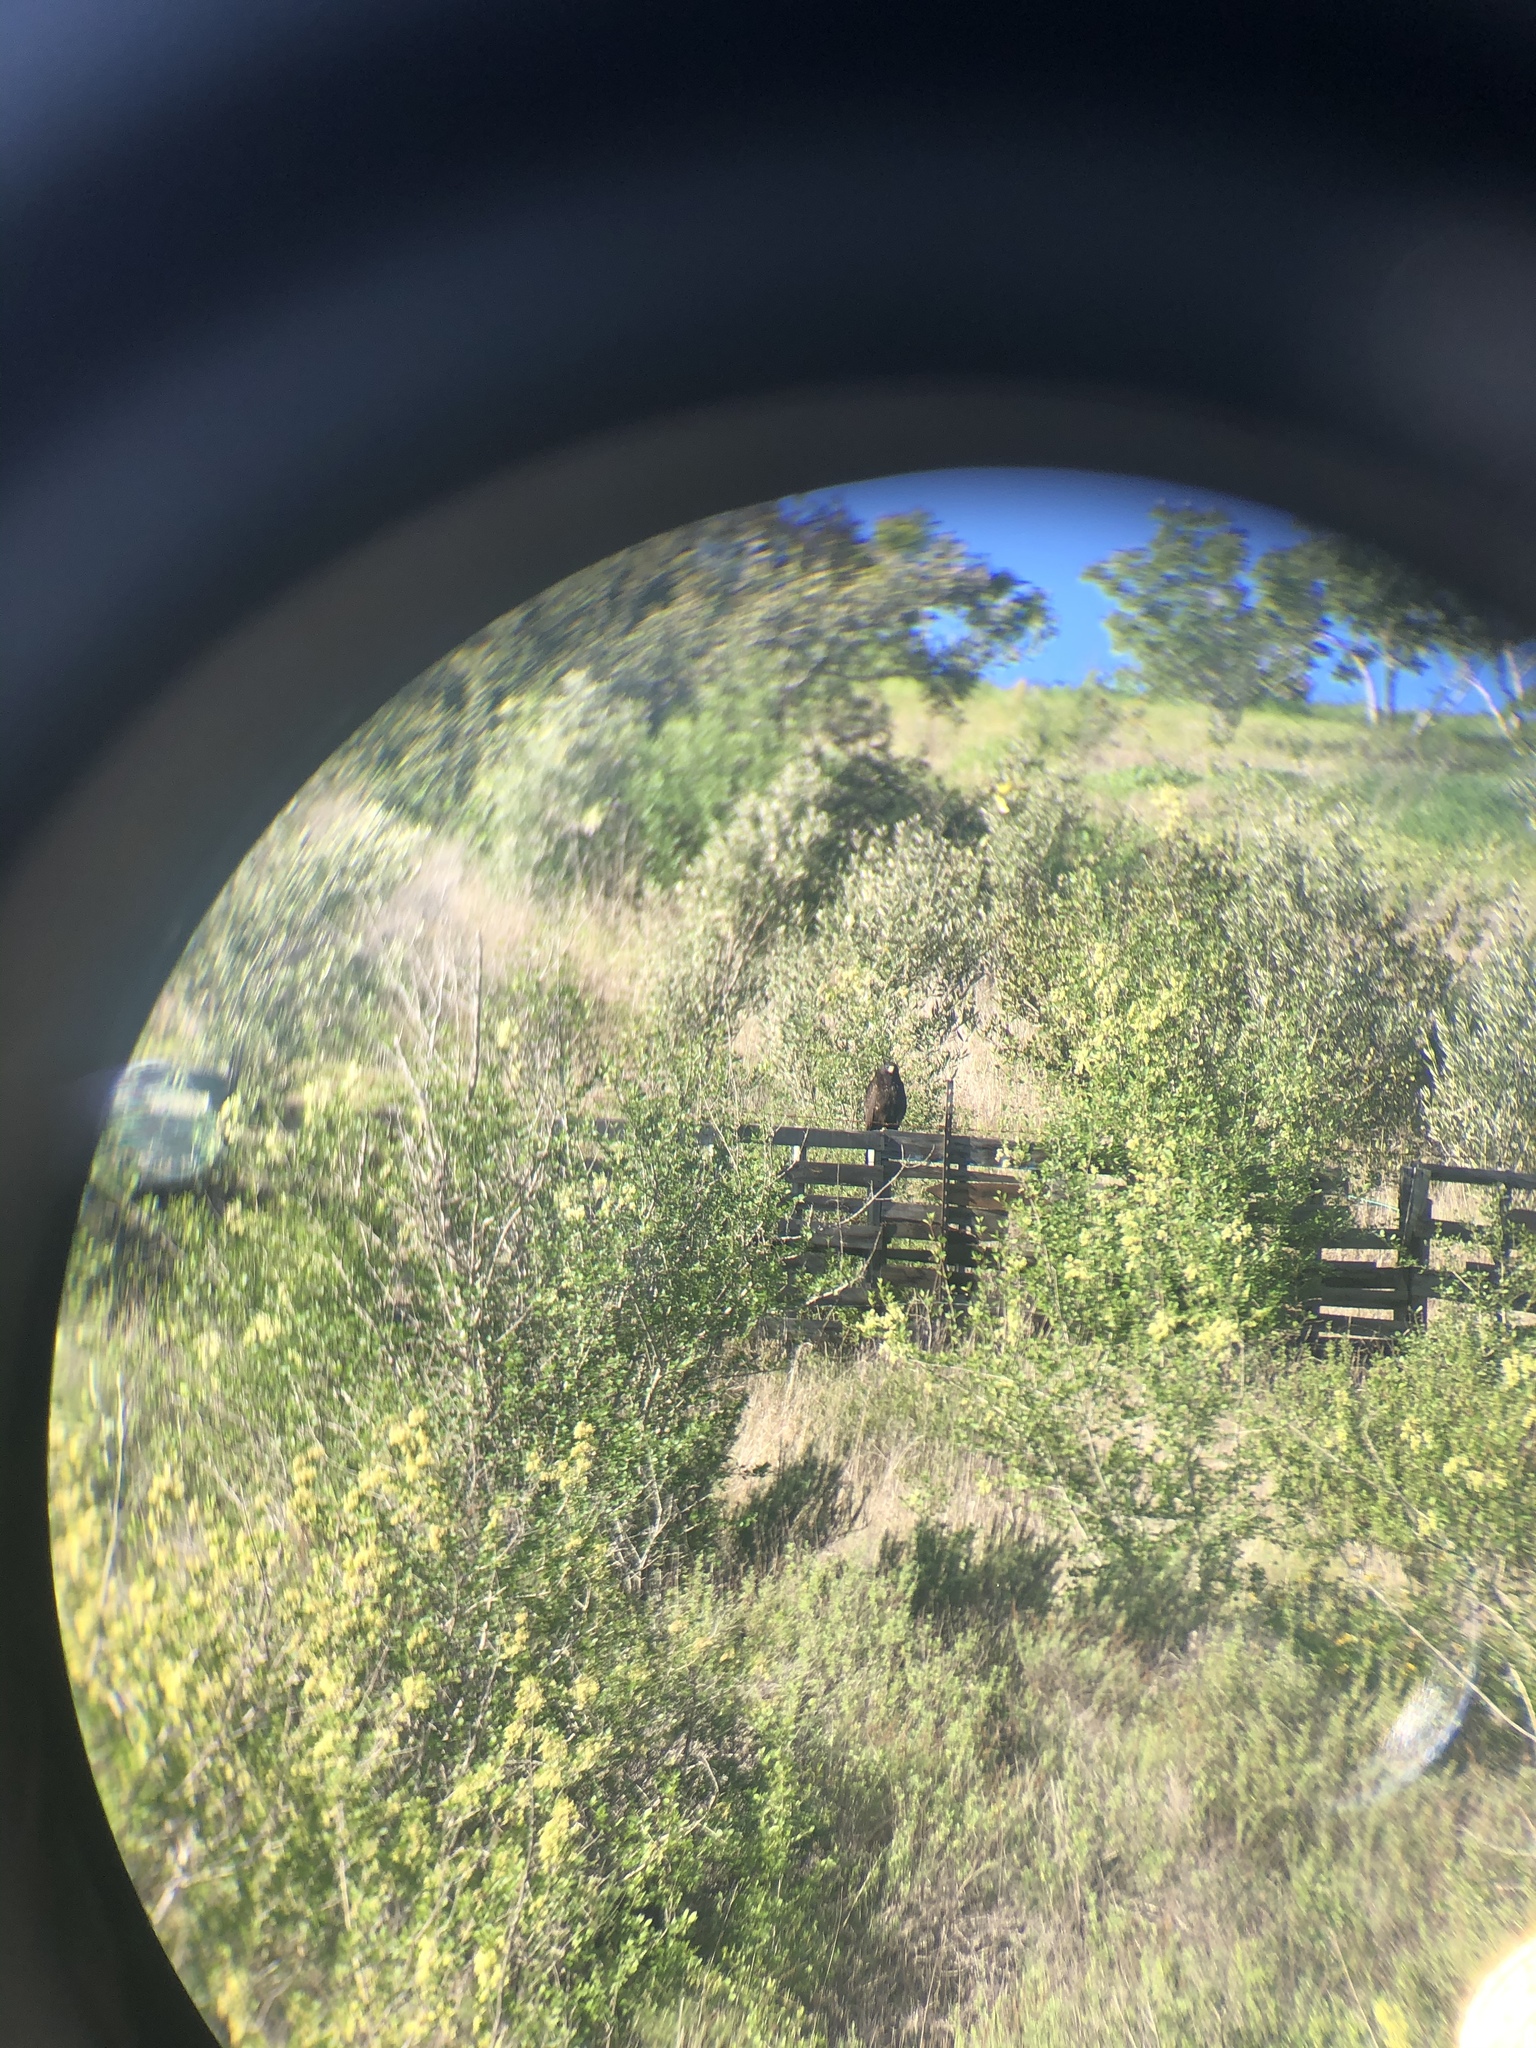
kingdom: Animalia
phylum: Chordata
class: Aves
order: Accipitriformes
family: Accipitridae
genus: Parabuteo
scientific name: Parabuteo unicinctus
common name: Harris's hawk
